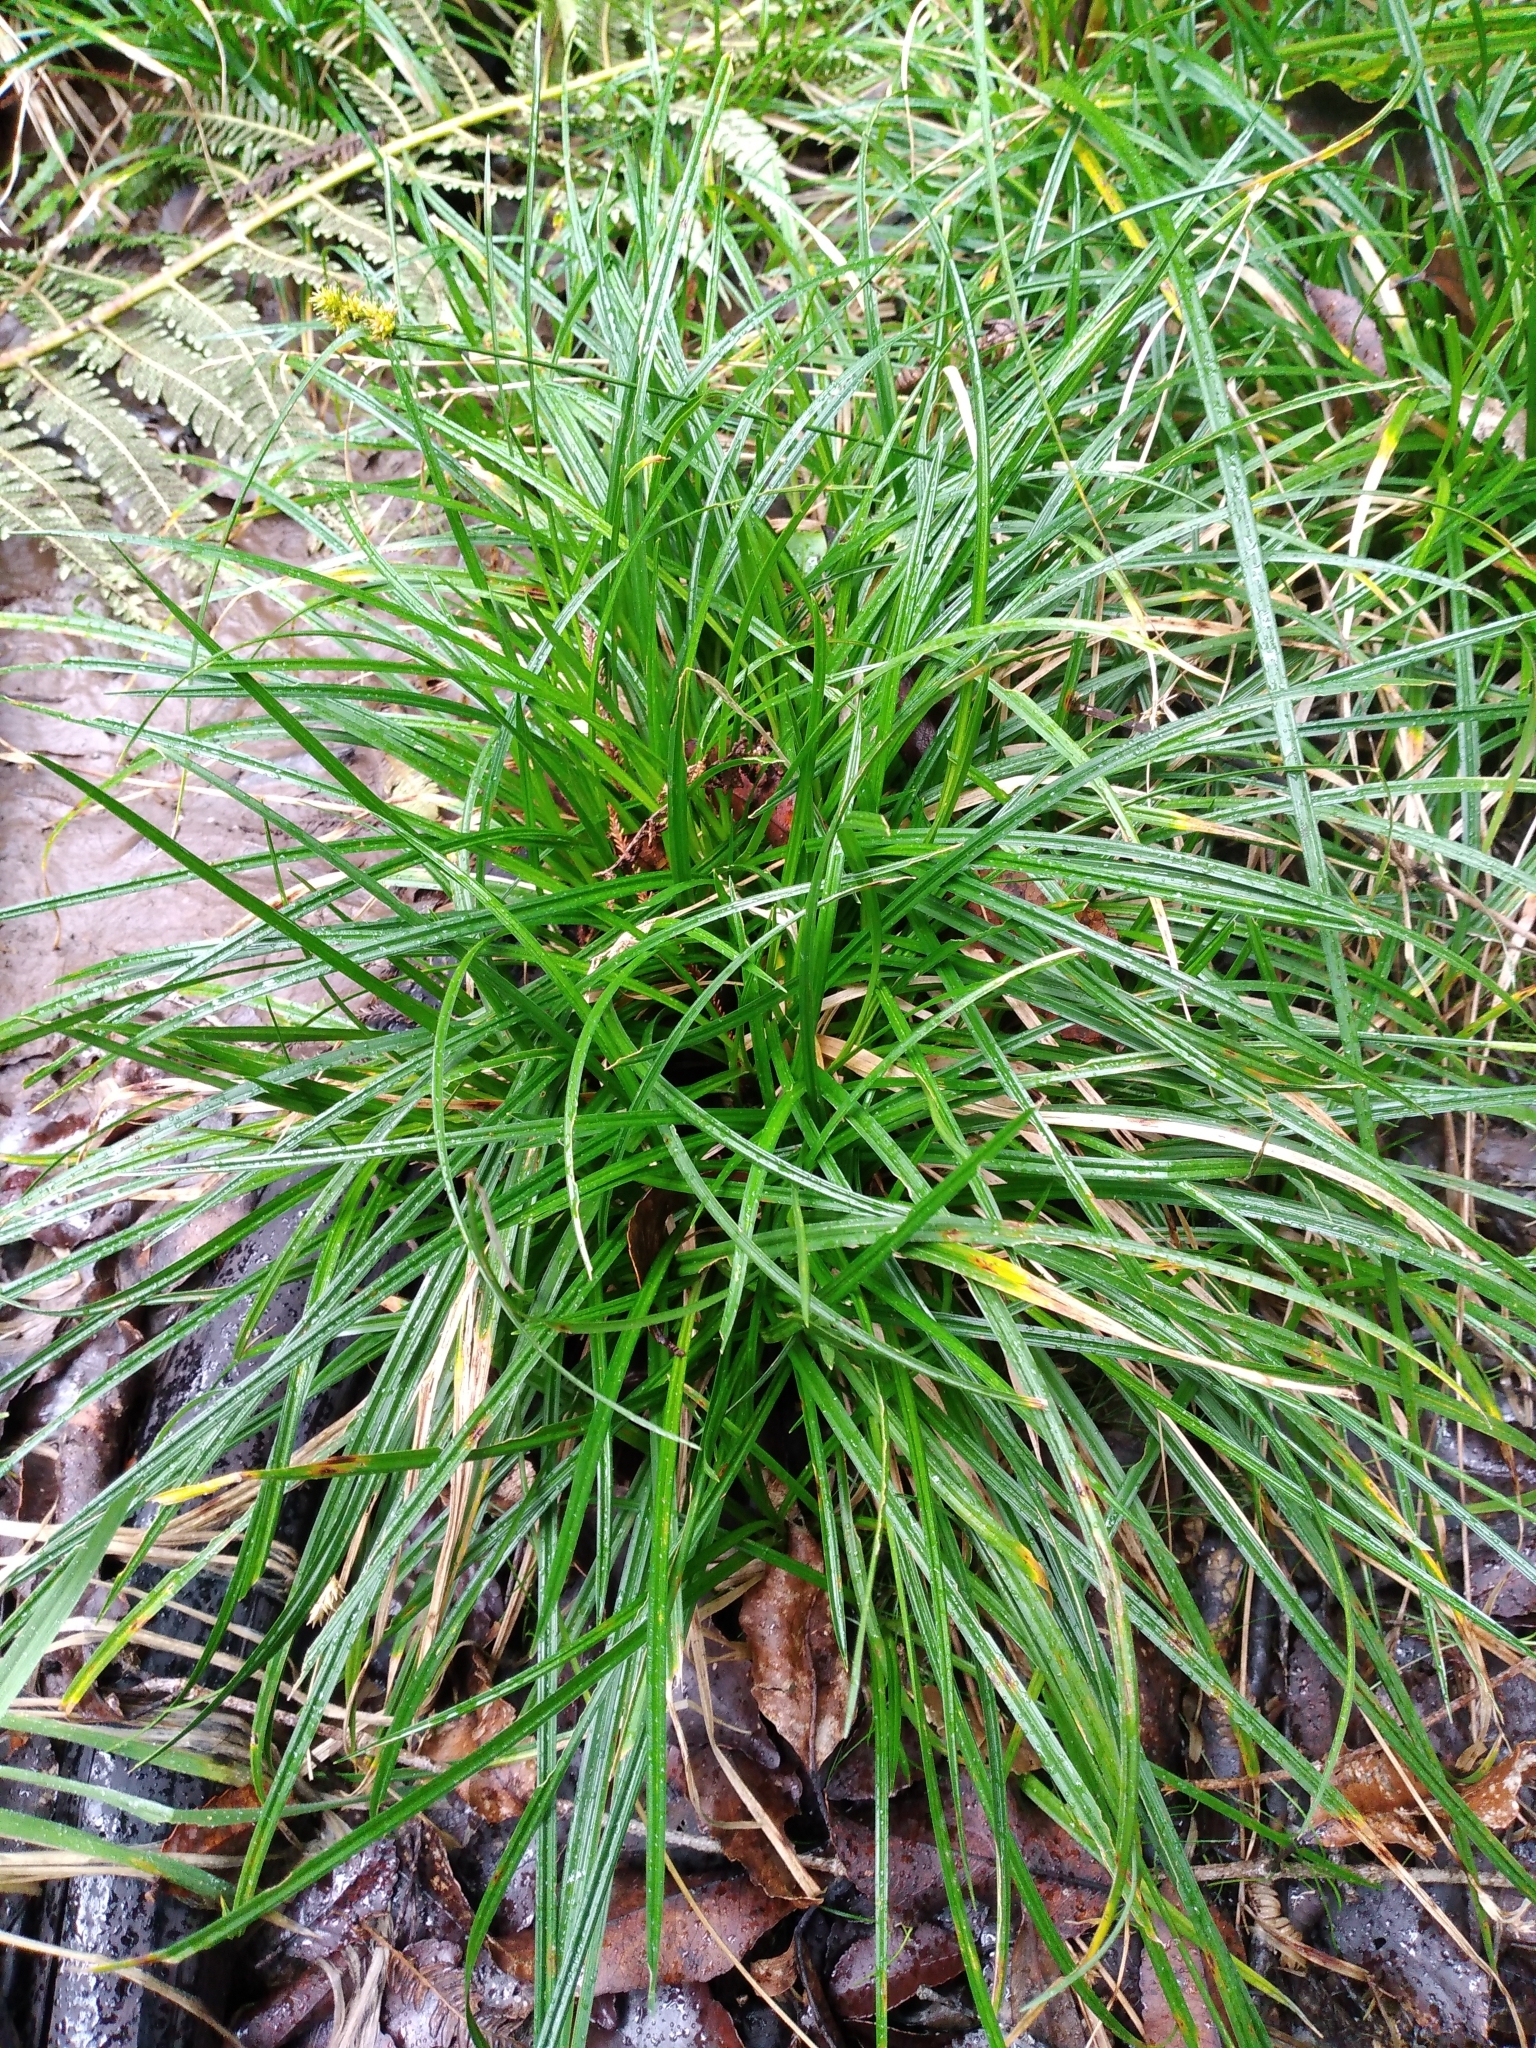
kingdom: Plantae
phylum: Tracheophyta
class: Liliopsida
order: Poales
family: Cyperaceae
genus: Carex
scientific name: Carex demissa
